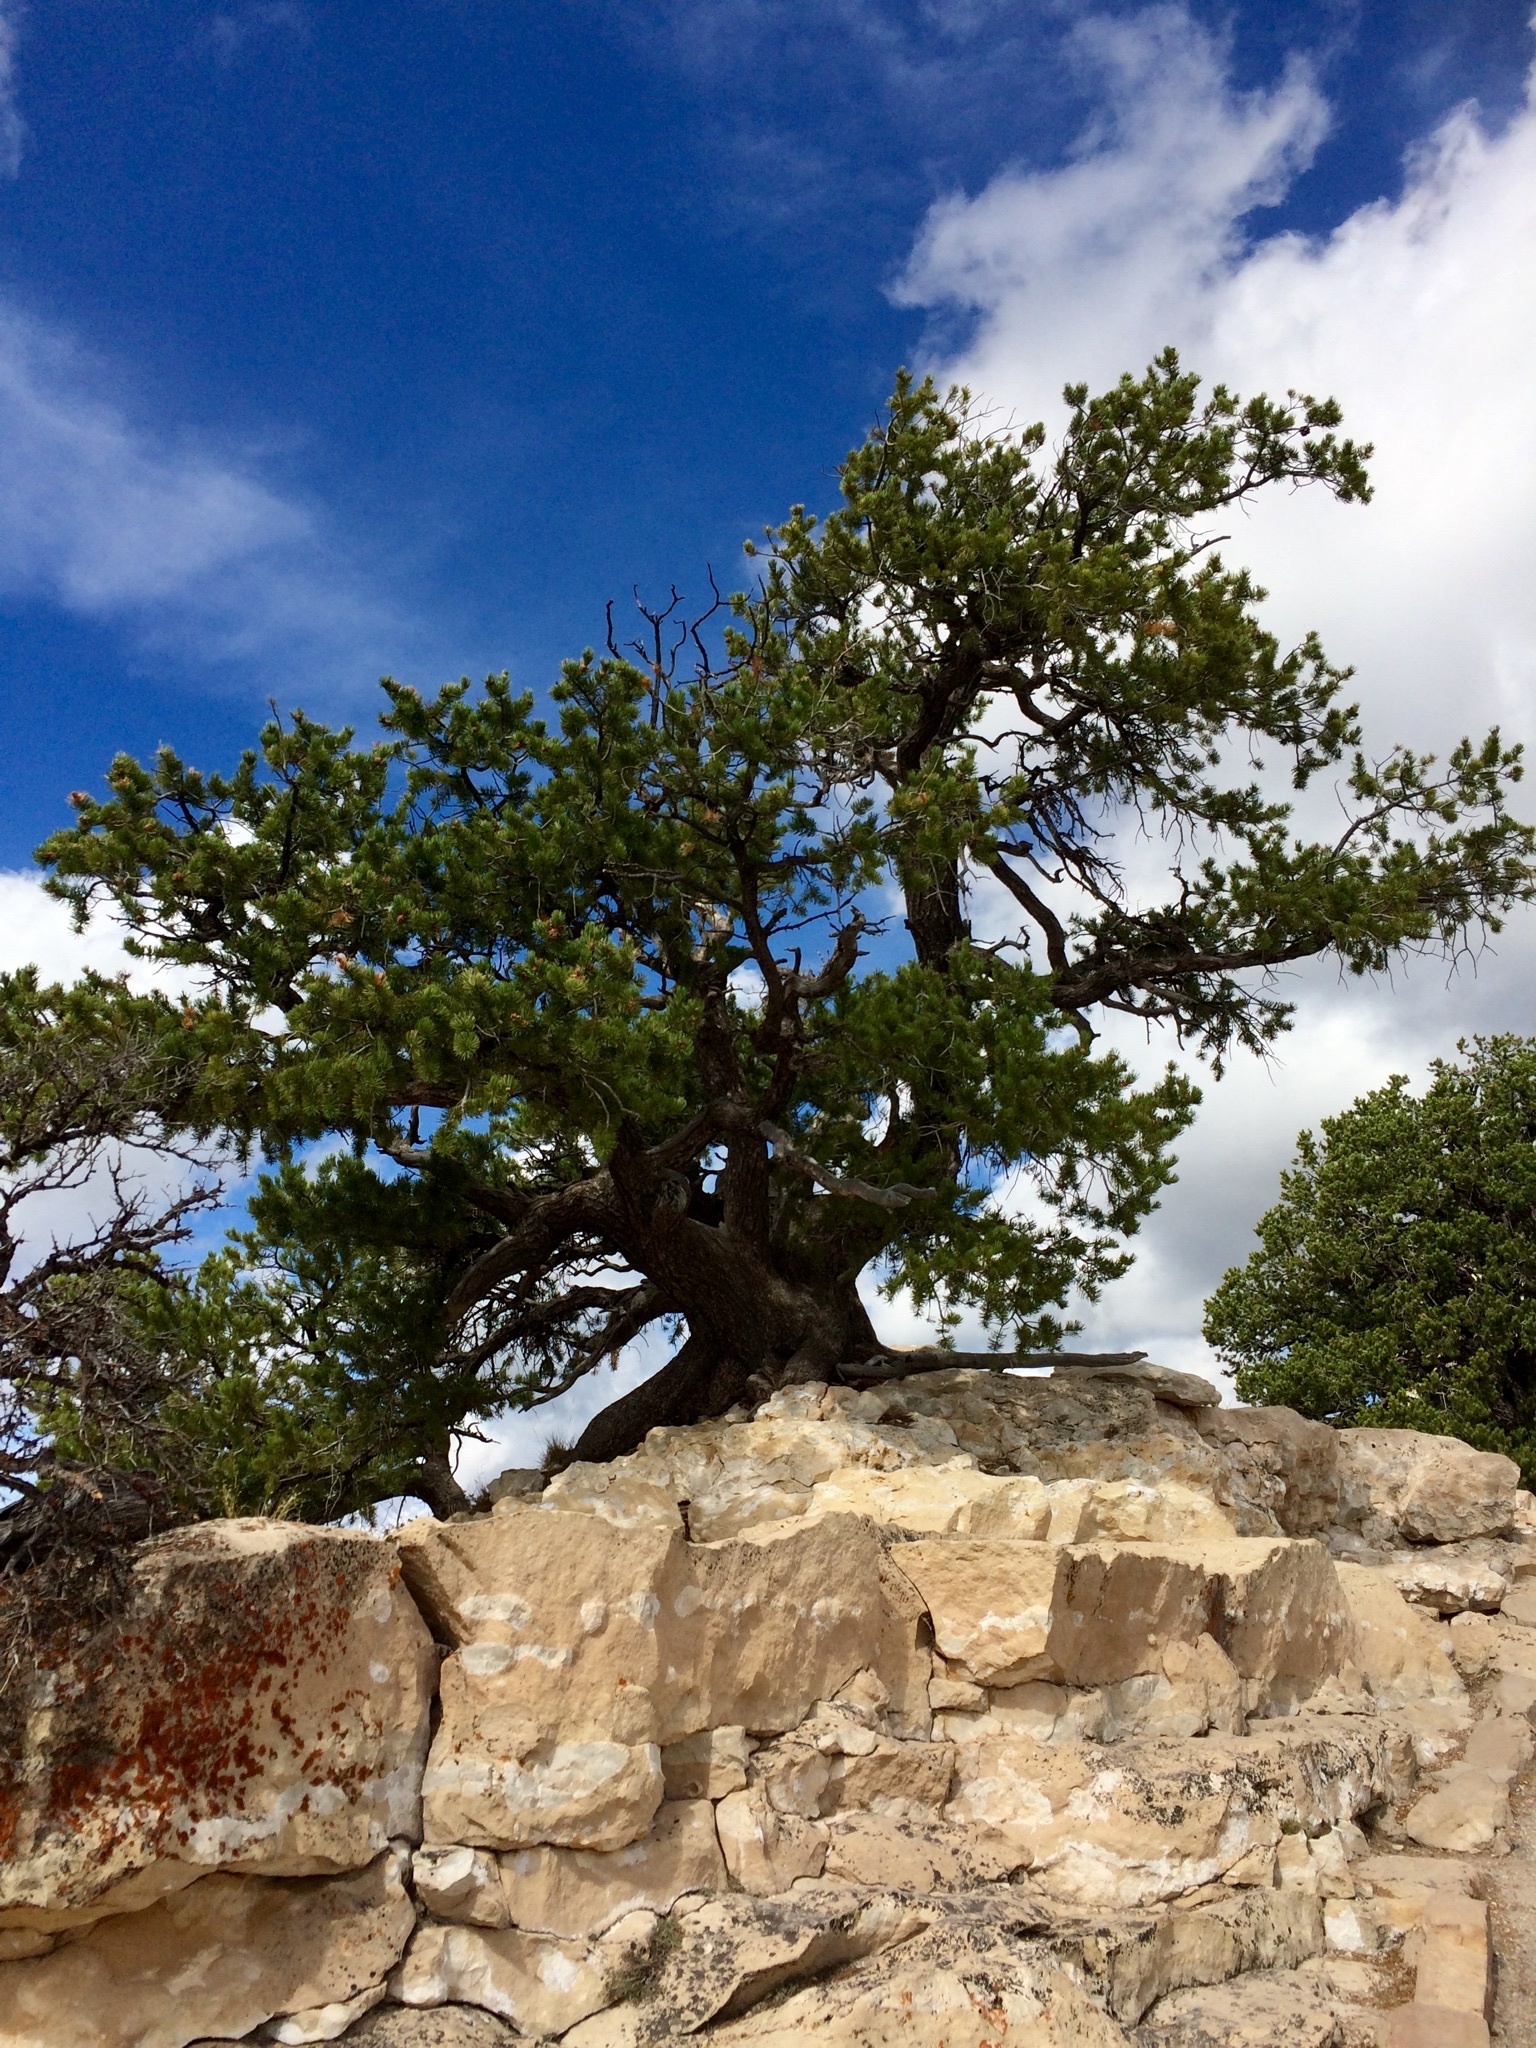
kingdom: Plantae
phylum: Tracheophyta
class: Pinopsida
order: Pinales
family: Pinaceae
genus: Pinus
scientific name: Pinus edulis
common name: Colorado pinyon
